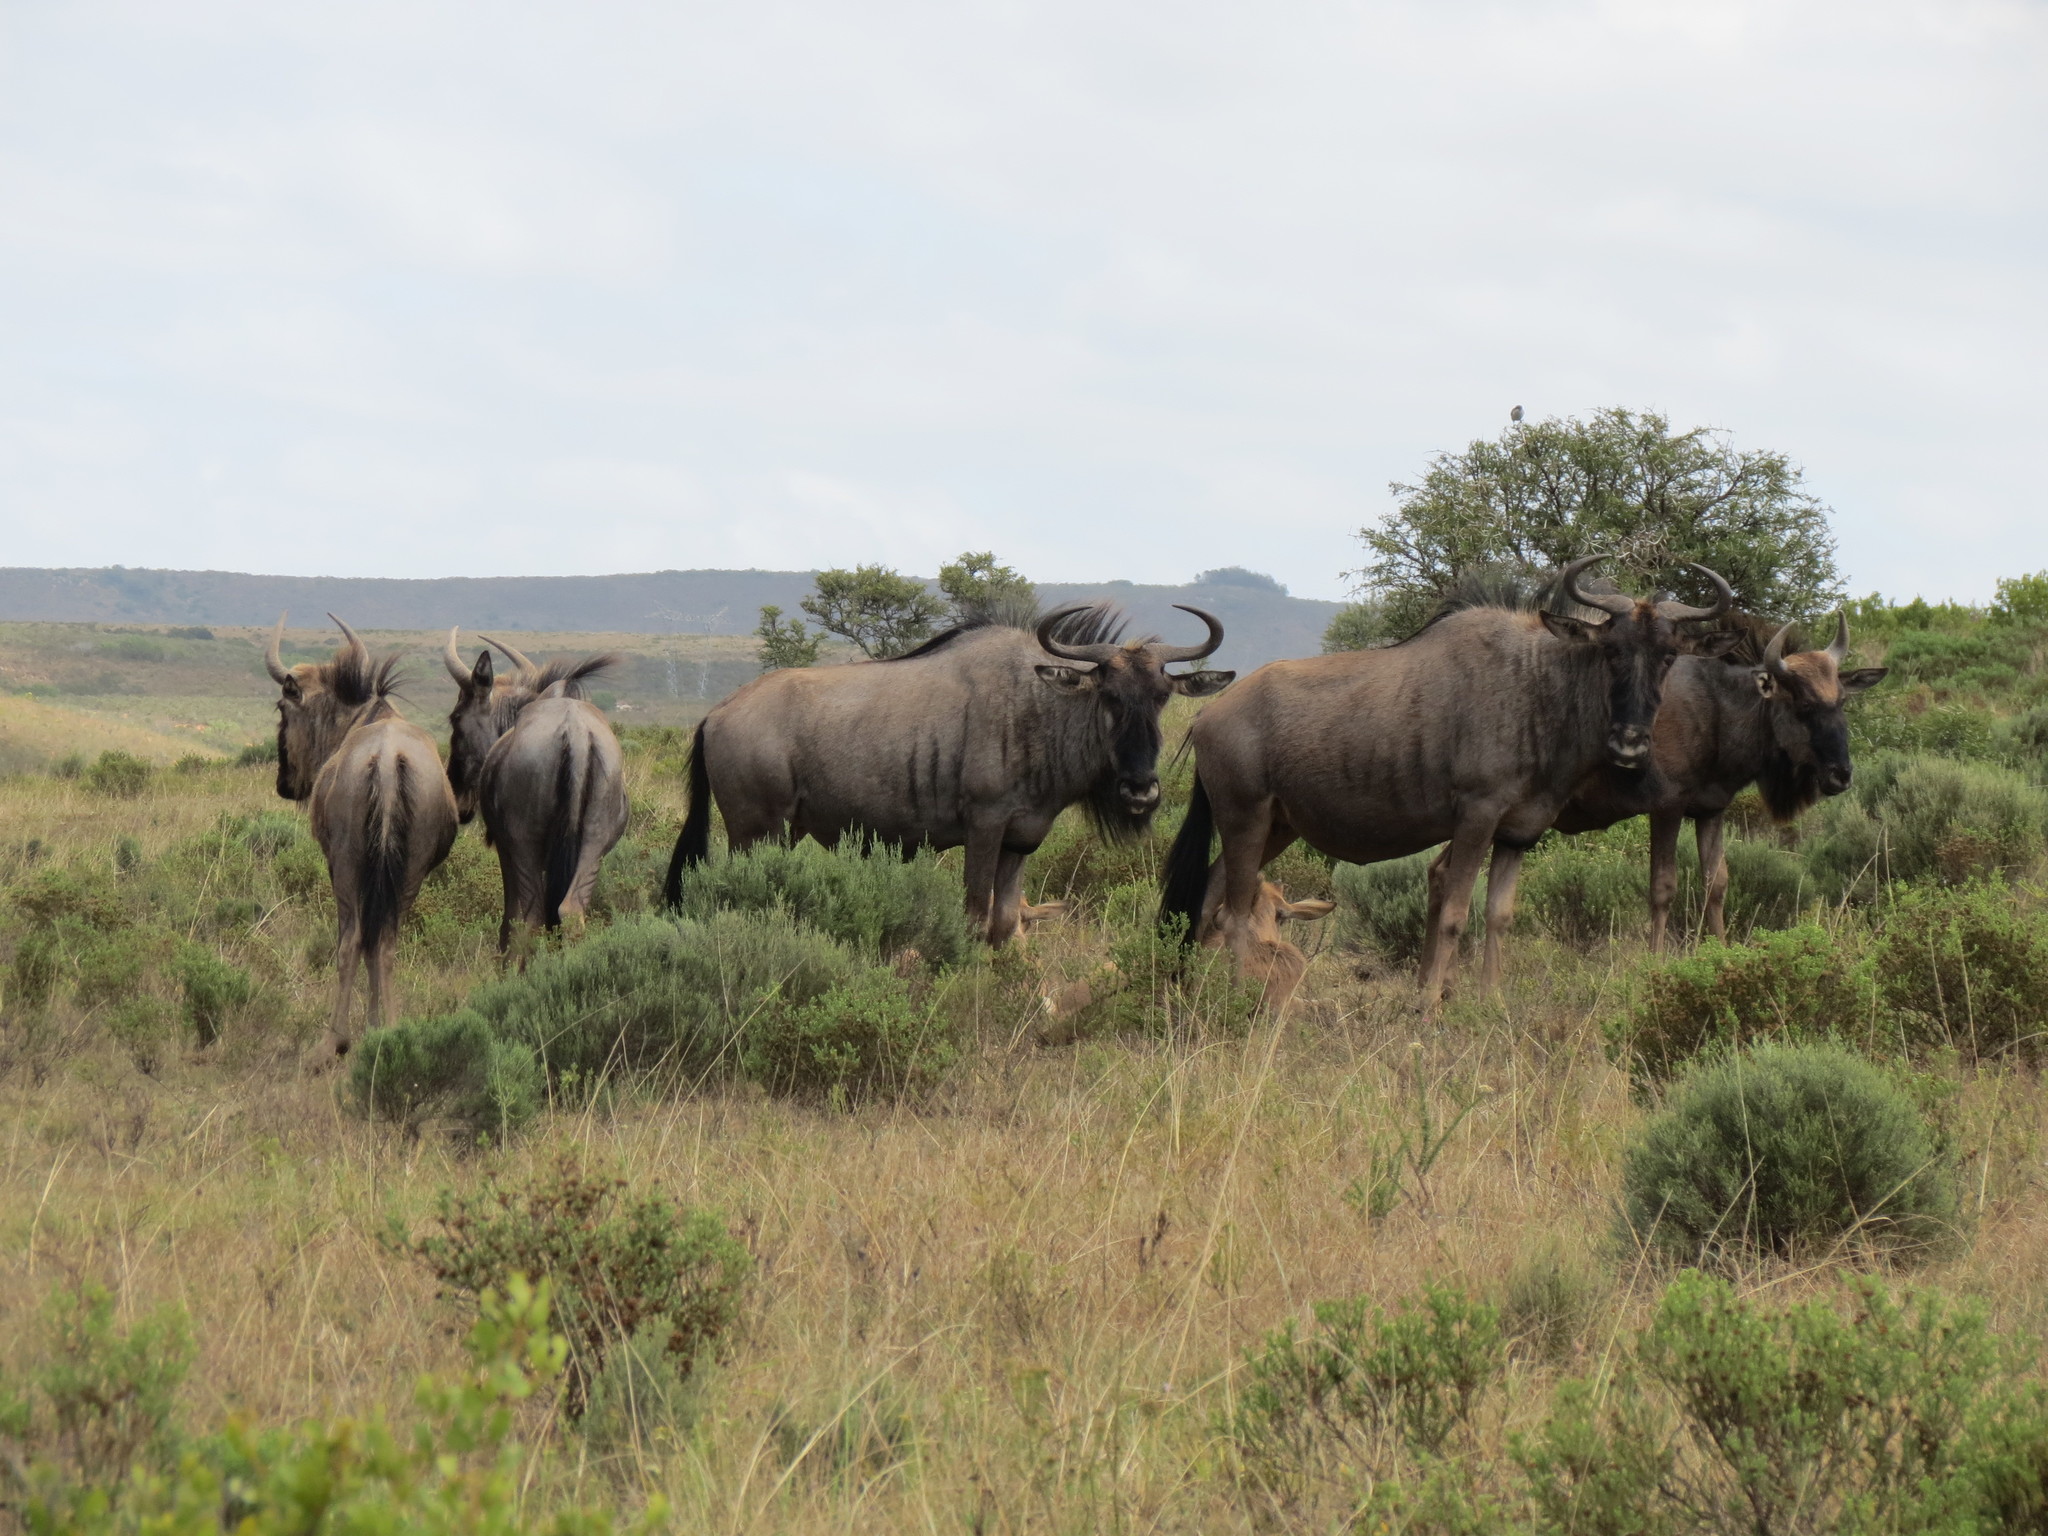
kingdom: Animalia
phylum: Chordata
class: Mammalia
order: Artiodactyla
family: Bovidae
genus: Connochaetes
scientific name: Connochaetes taurinus
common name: Blue wildebeest
